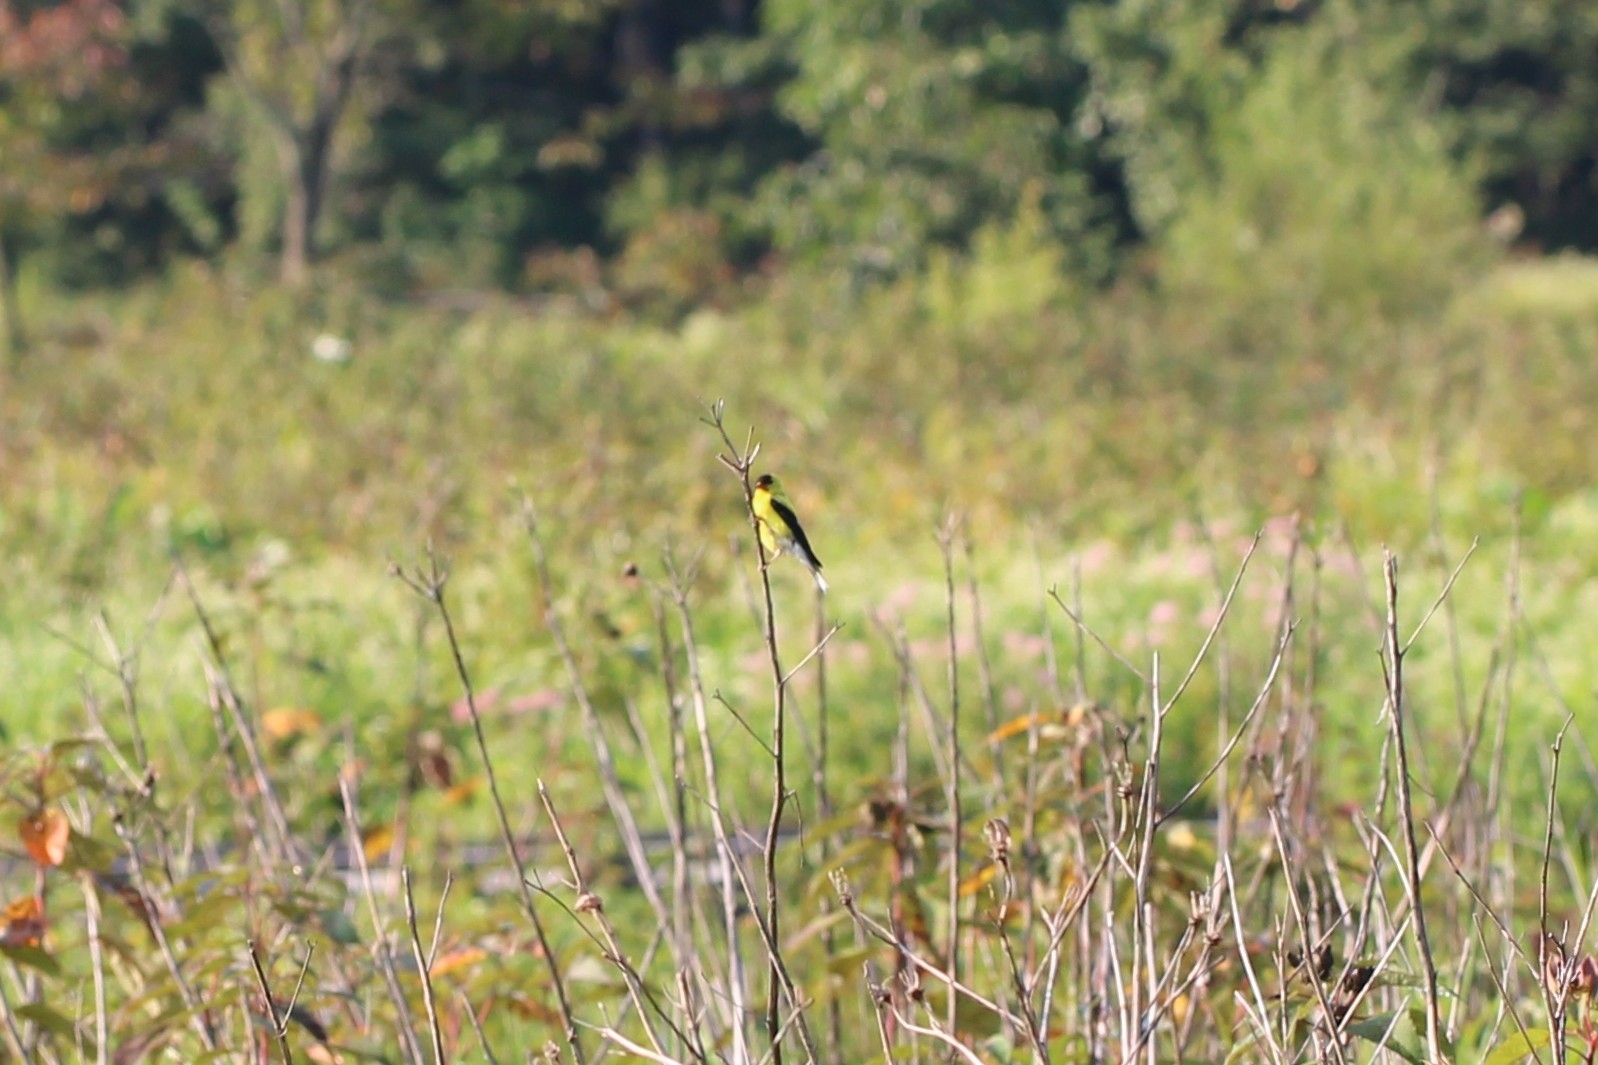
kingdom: Animalia
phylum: Chordata
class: Aves
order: Passeriformes
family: Fringillidae
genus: Spinus
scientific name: Spinus tristis
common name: American goldfinch
